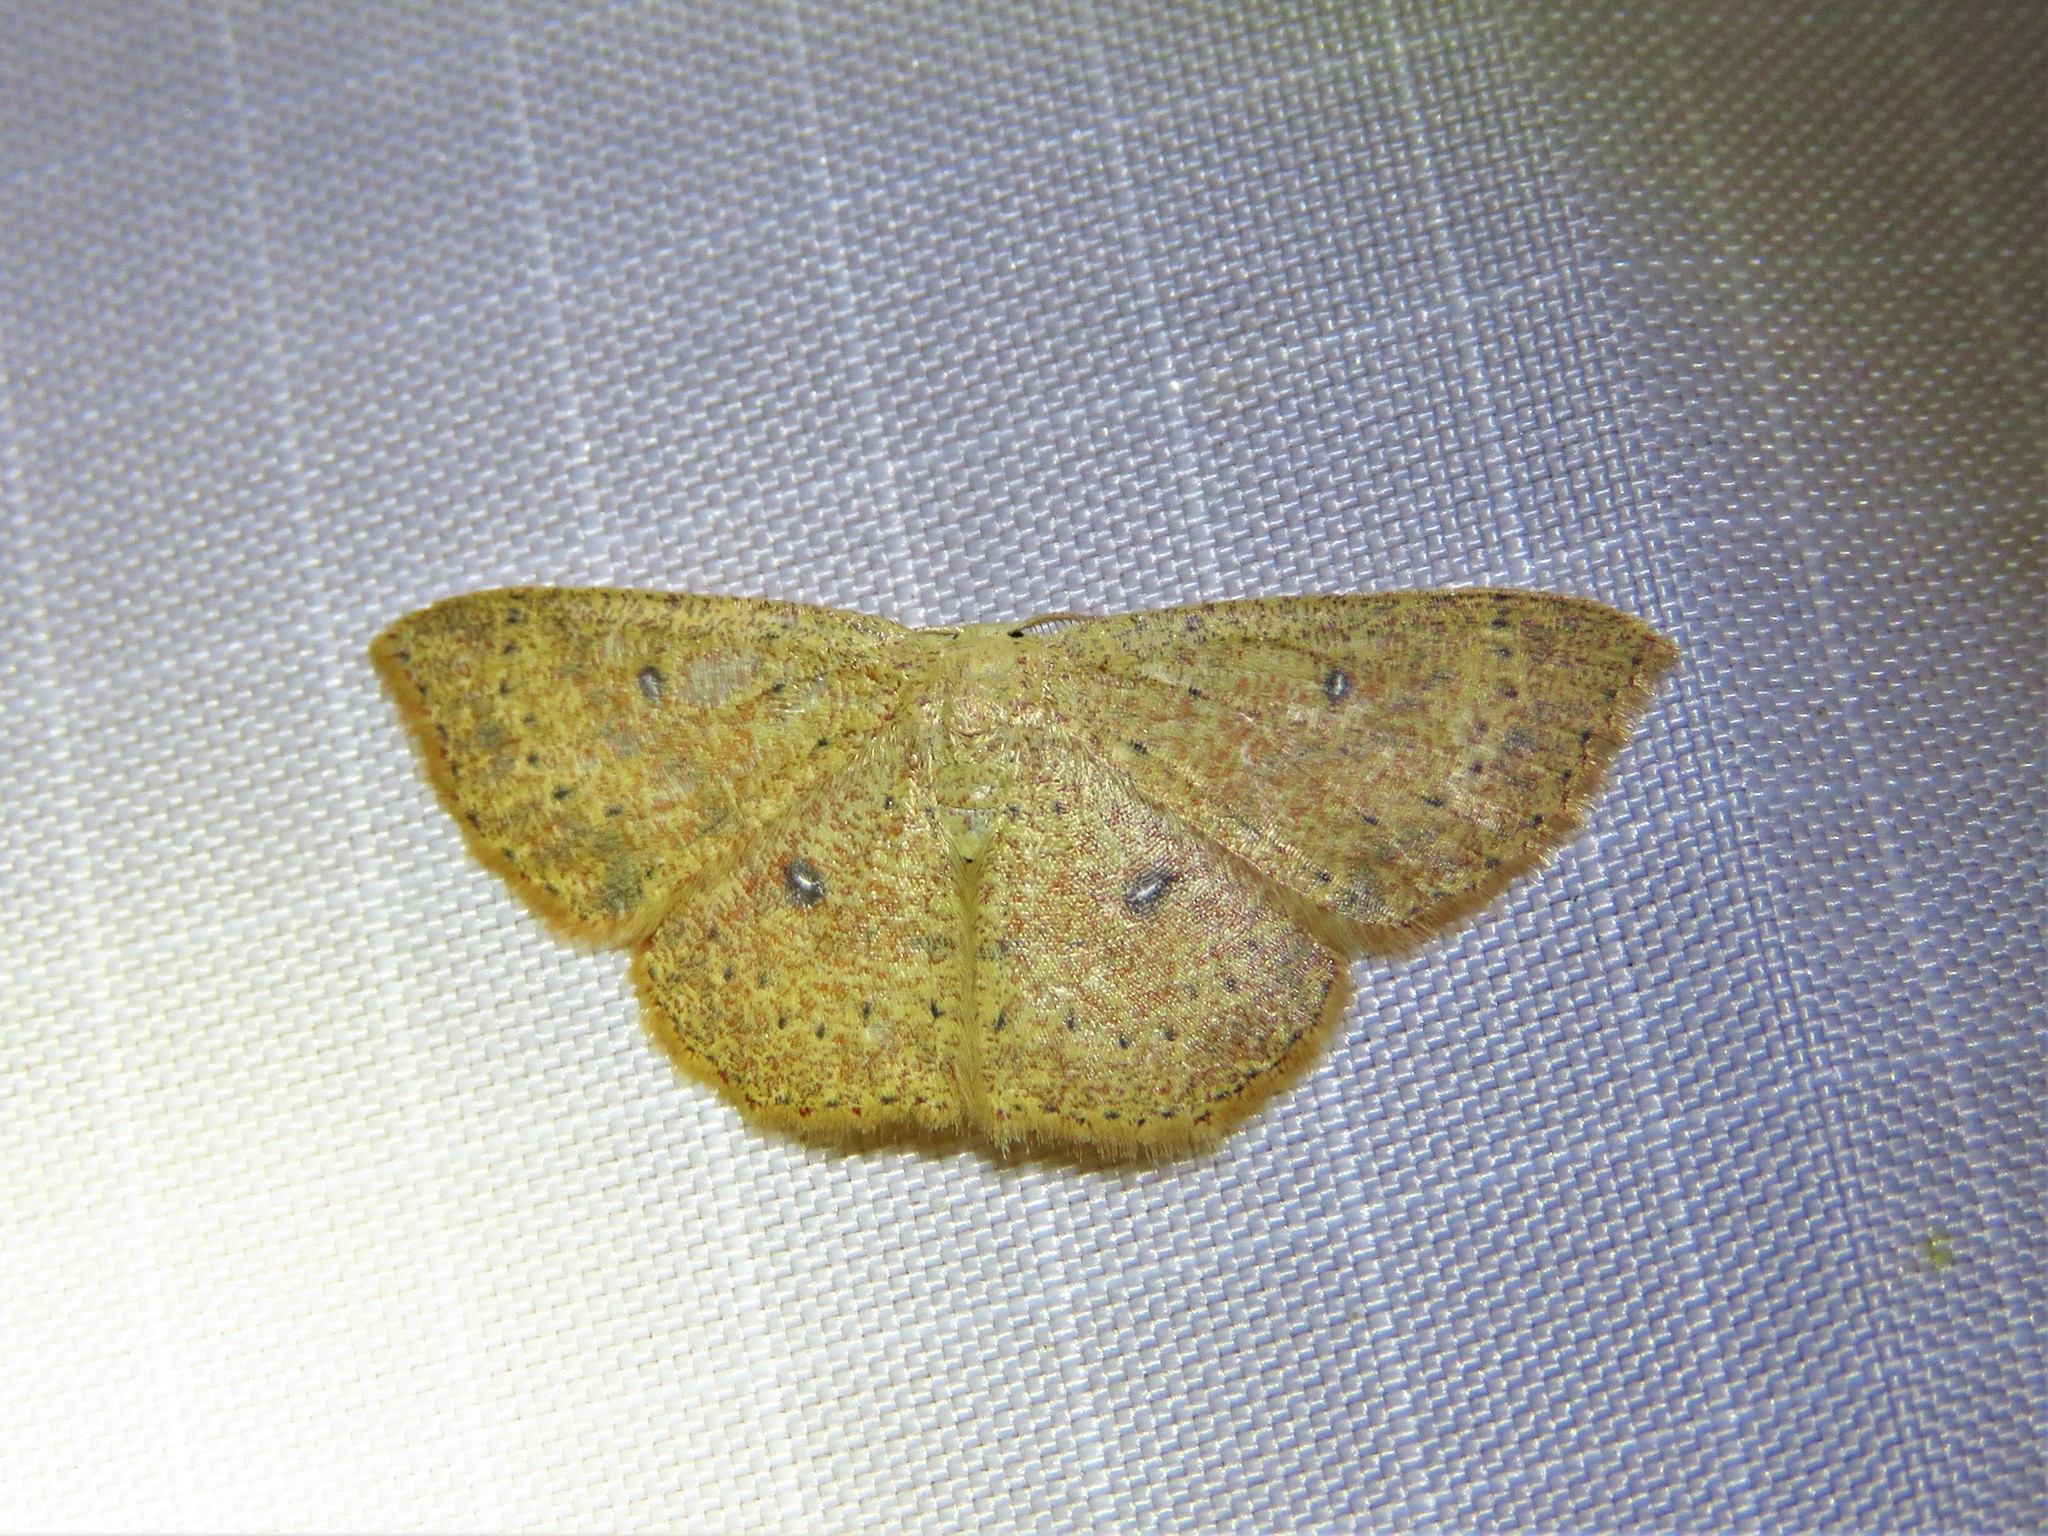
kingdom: Animalia
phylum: Arthropoda
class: Insecta
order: Lepidoptera
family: Geometridae
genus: Cyclophora
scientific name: Cyclophora packardi
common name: Packard's wave
